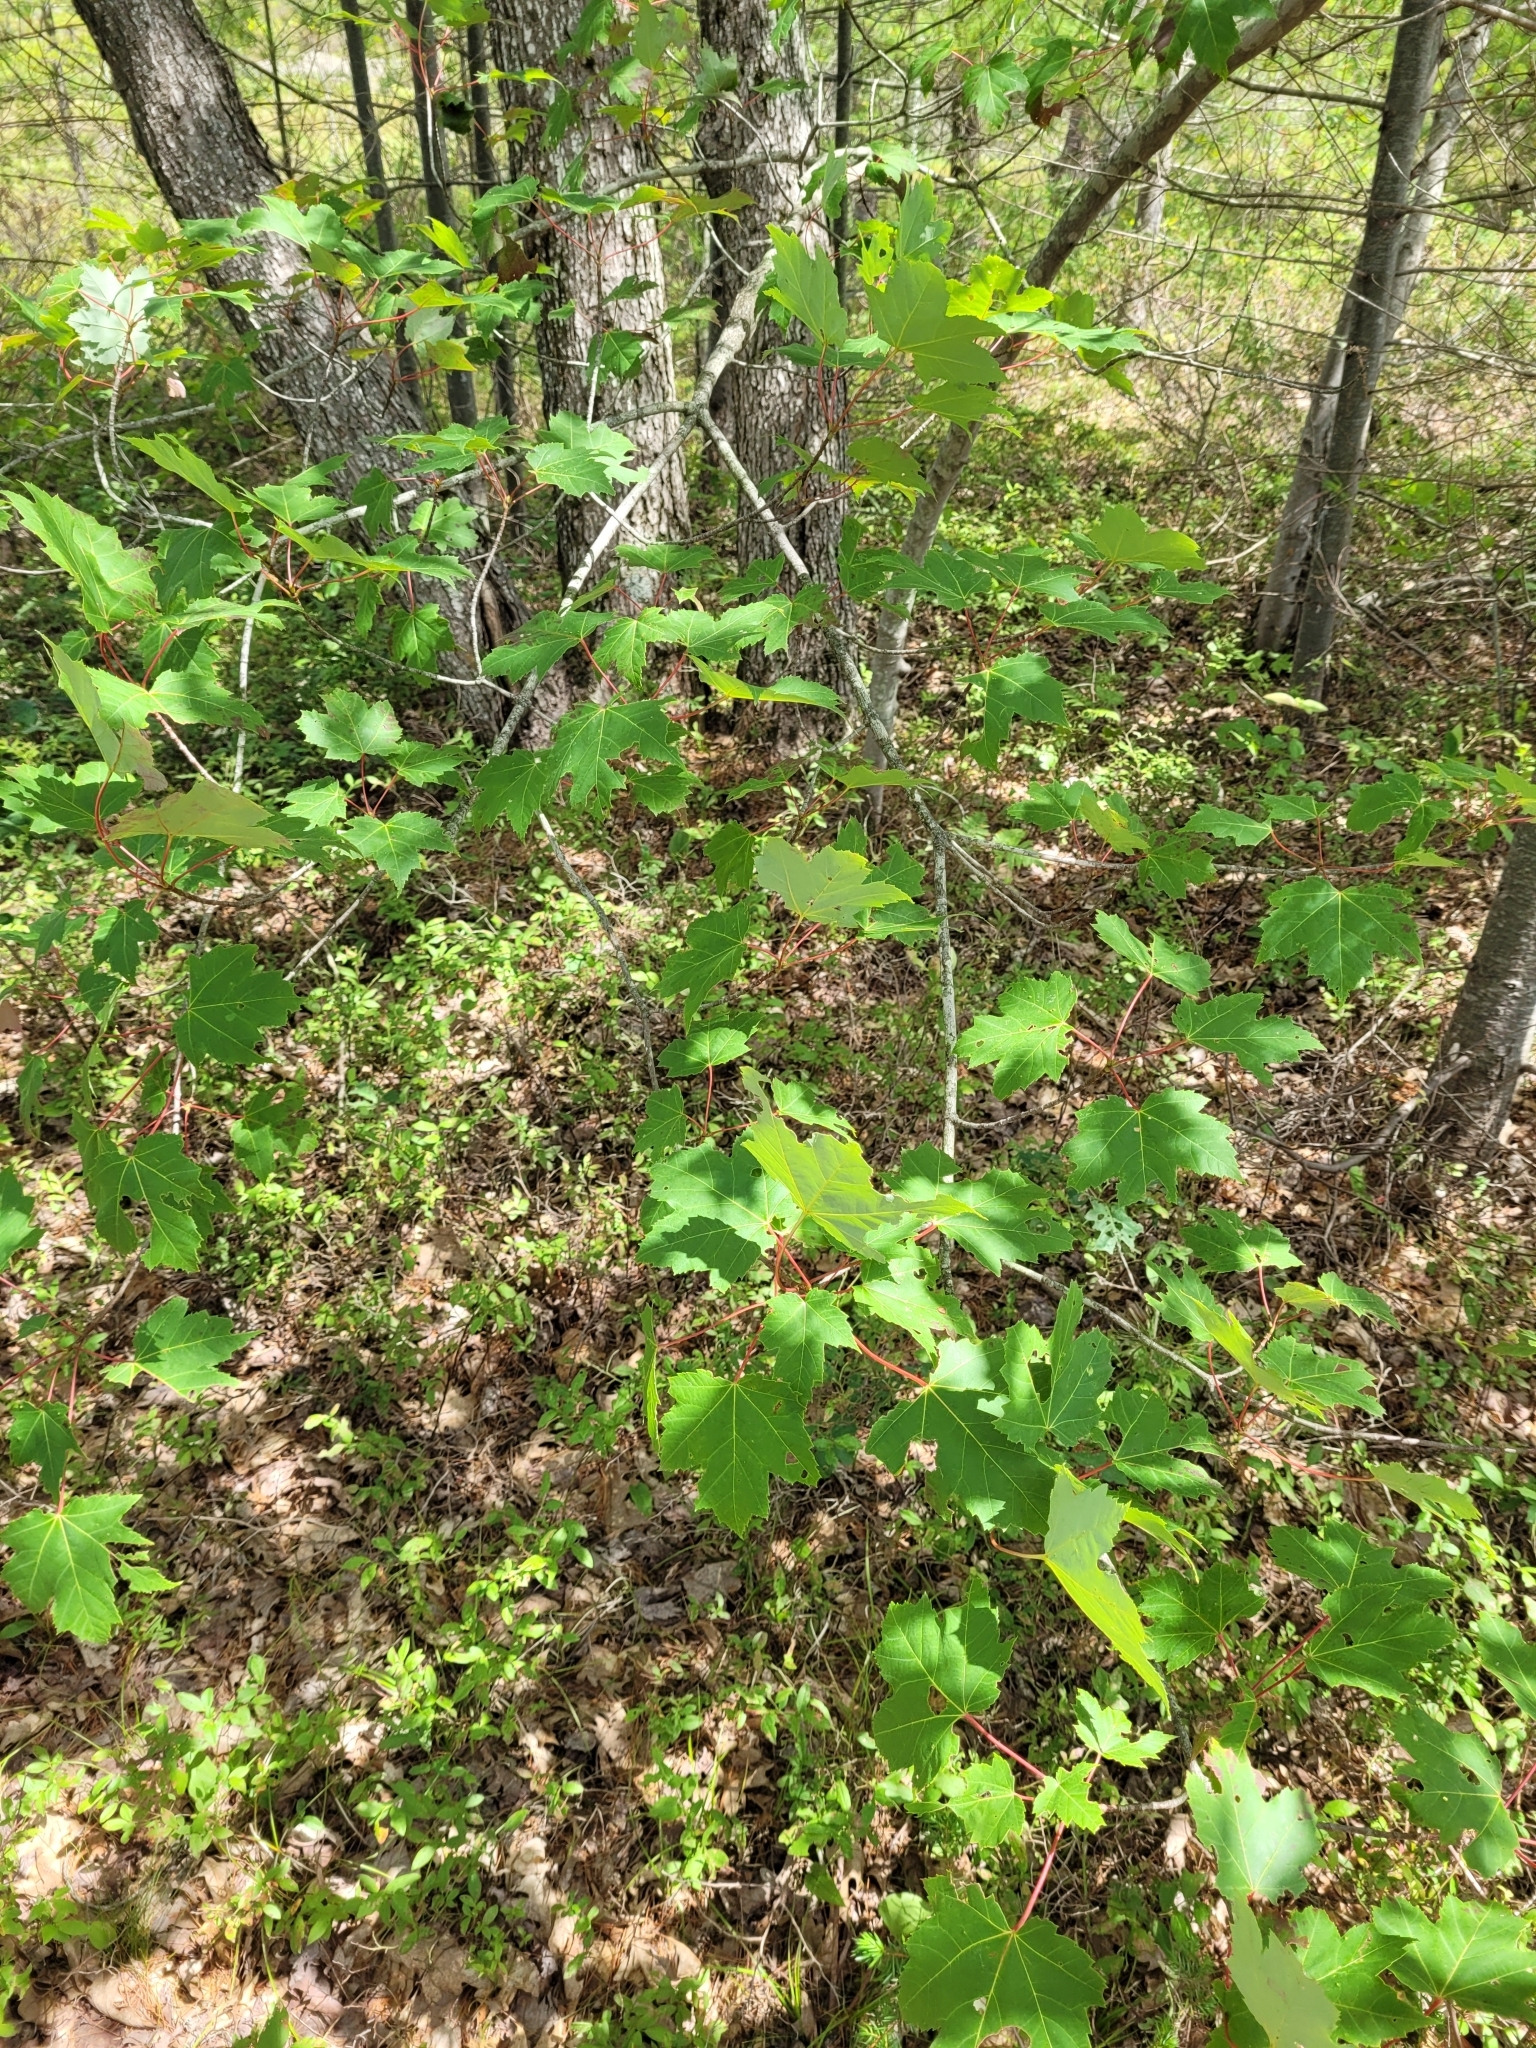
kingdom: Plantae
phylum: Tracheophyta
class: Magnoliopsida
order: Sapindales
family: Sapindaceae
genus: Acer
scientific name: Acer rubrum
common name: Red maple
